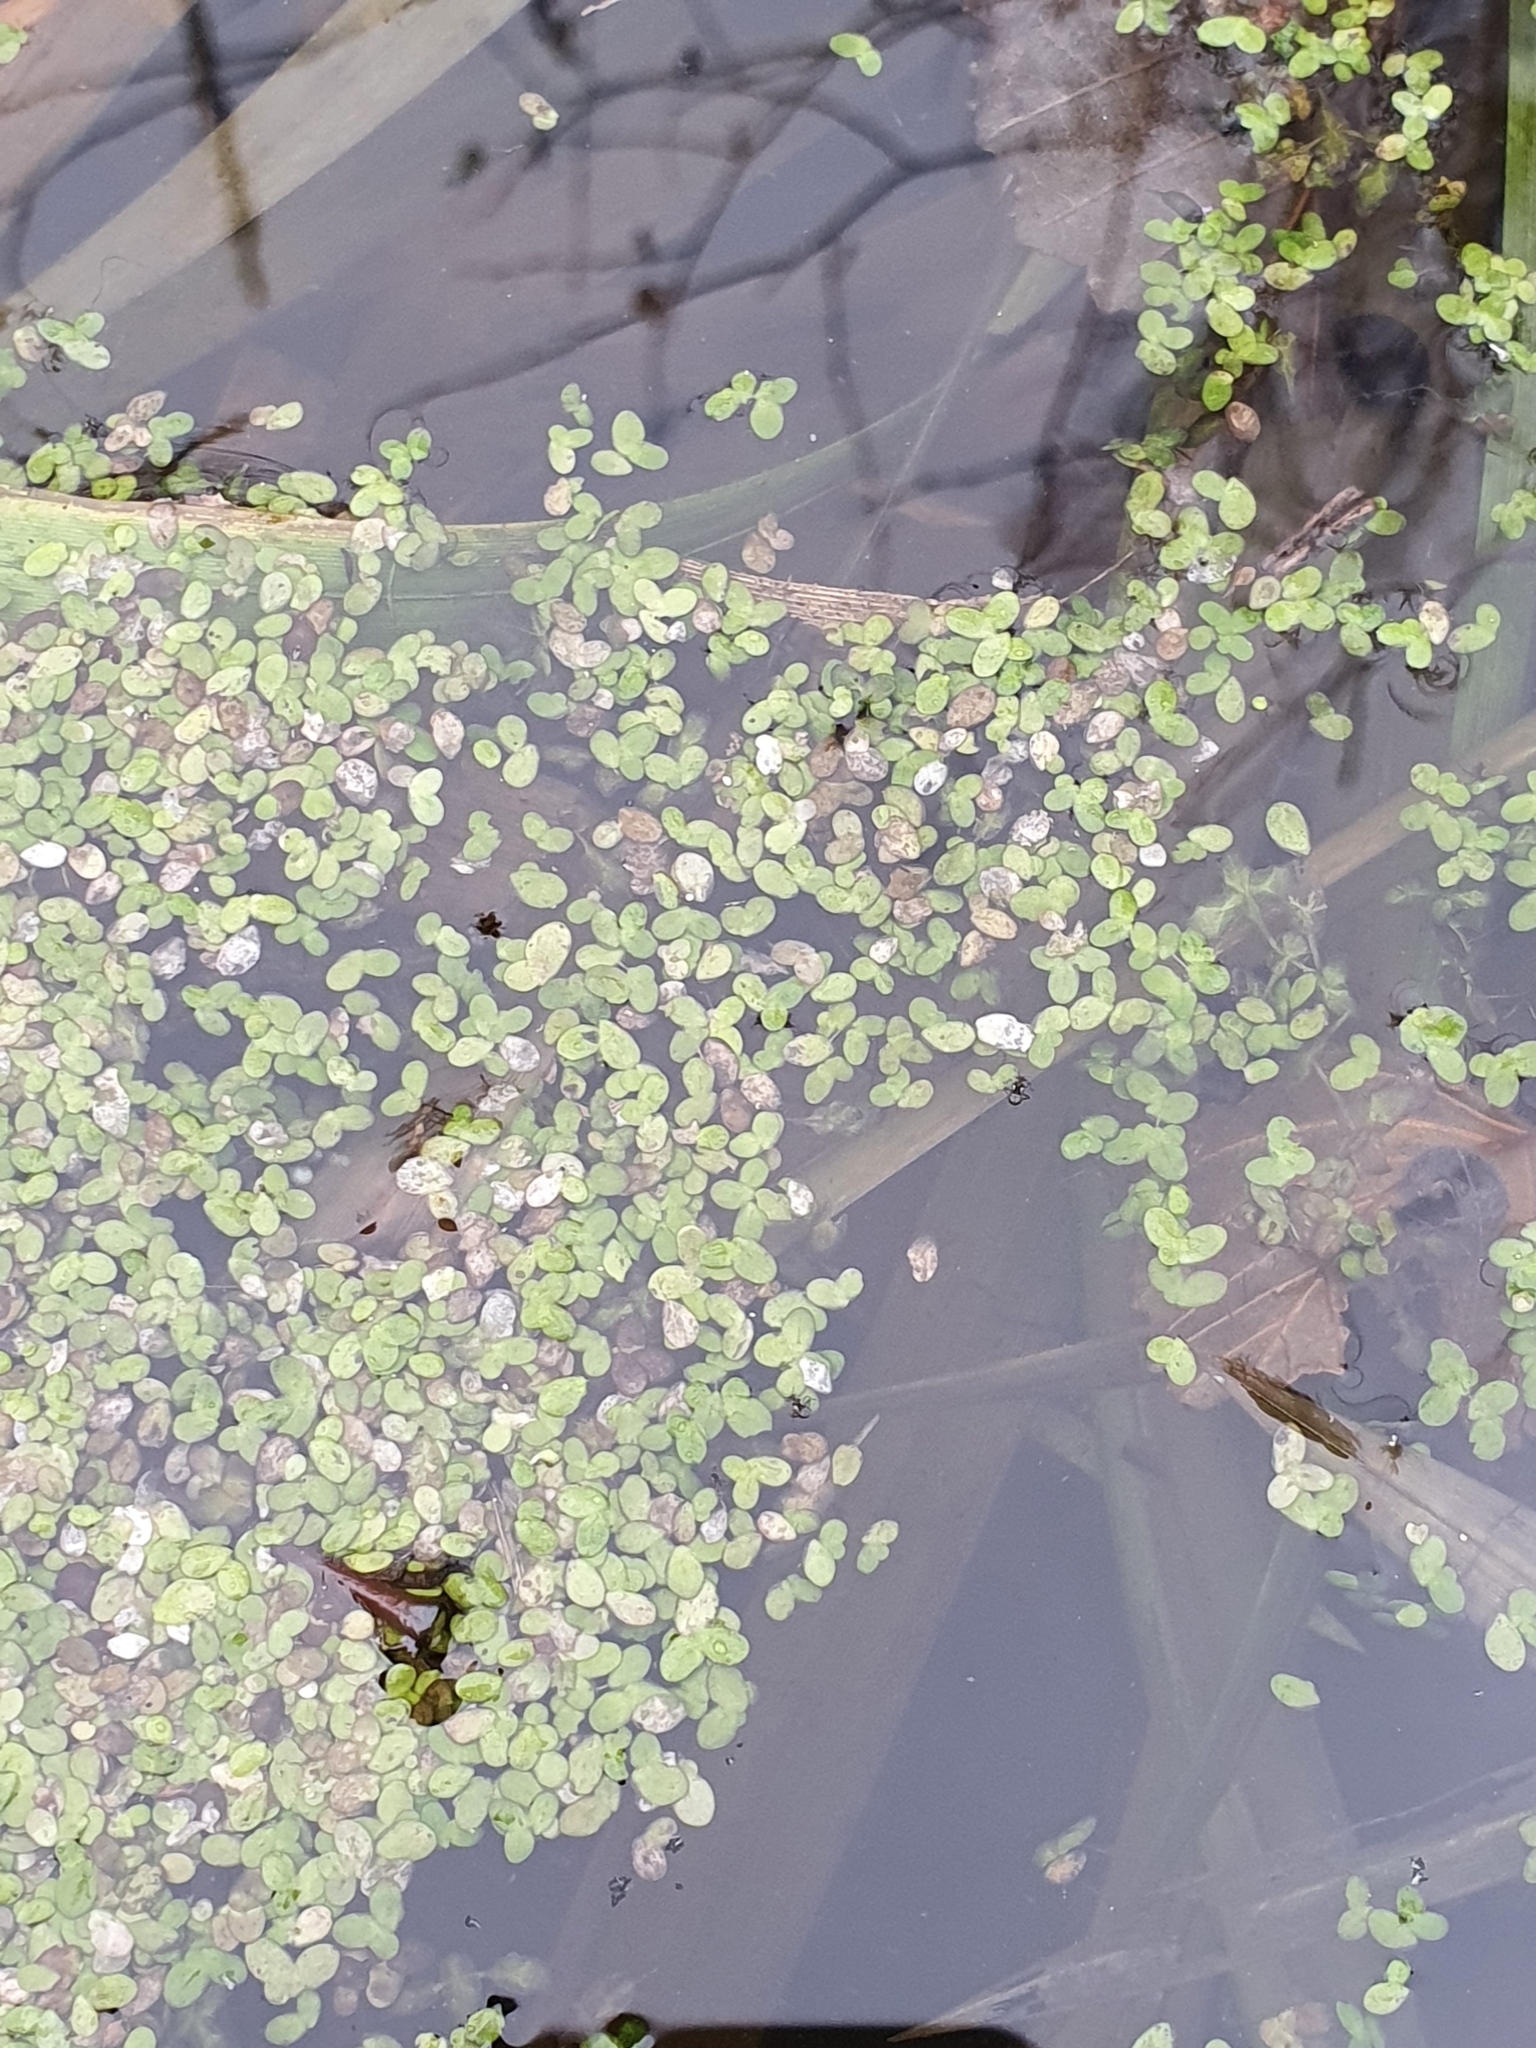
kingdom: Plantae
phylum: Tracheophyta
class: Liliopsida
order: Alismatales
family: Araceae
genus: Lemna
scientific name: Lemna minor
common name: Common duckweed
